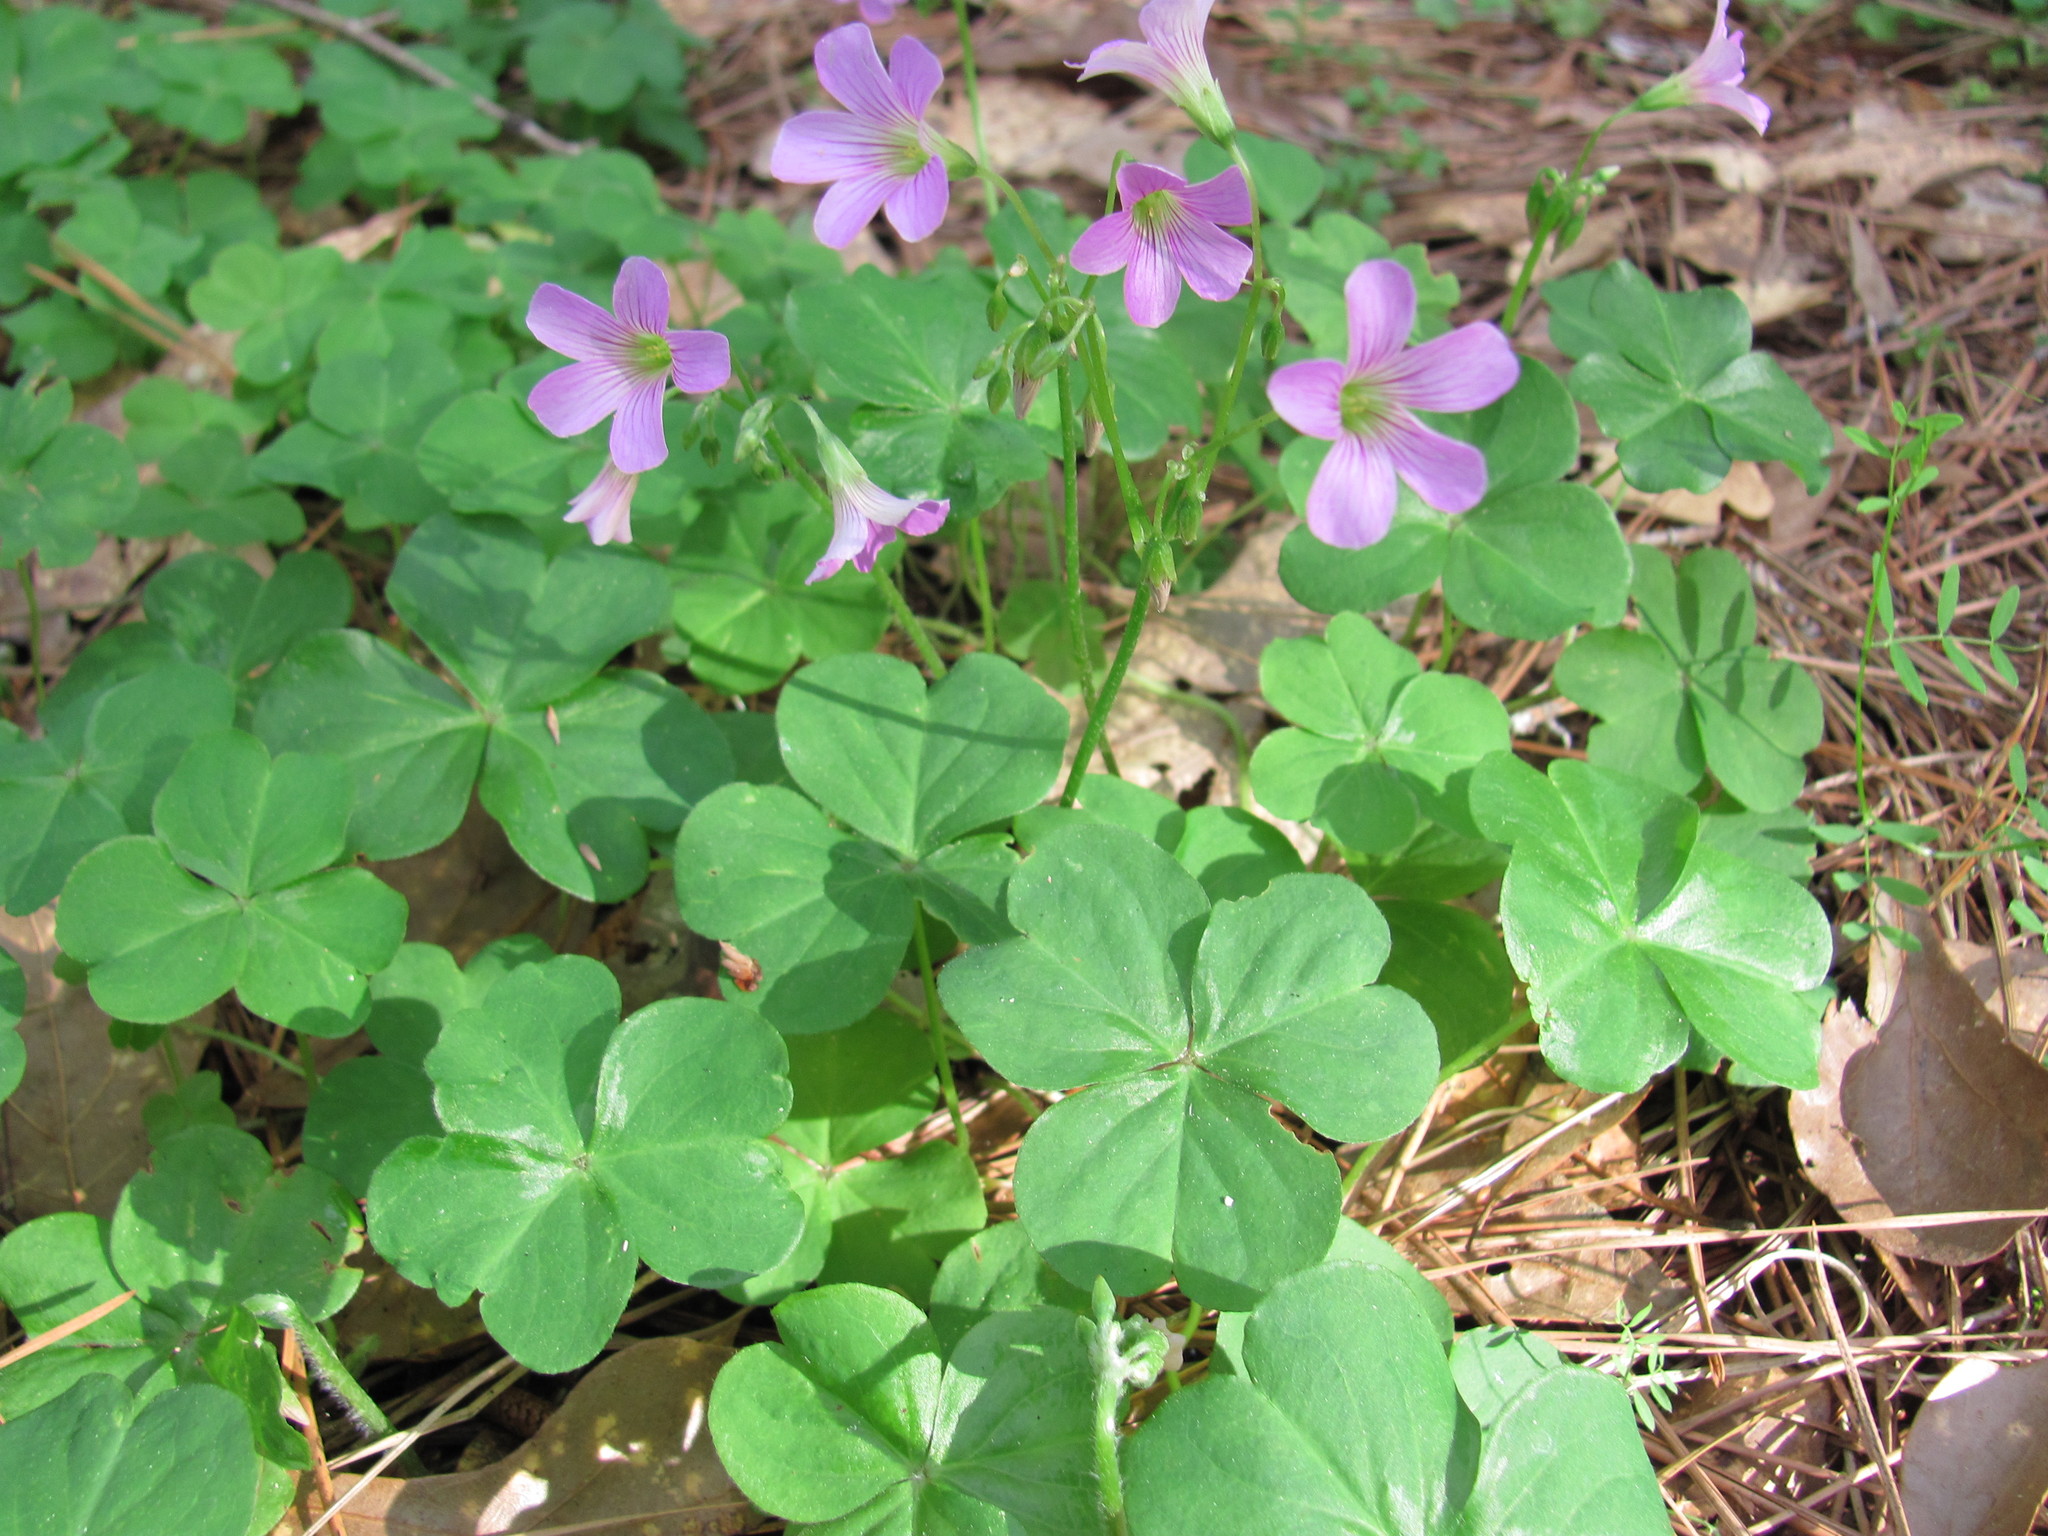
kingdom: Plantae
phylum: Tracheophyta
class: Magnoliopsida
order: Oxalidales
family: Oxalidaceae
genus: Oxalis
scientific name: Oxalis debilis
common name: Large-flowered pink-sorrel
